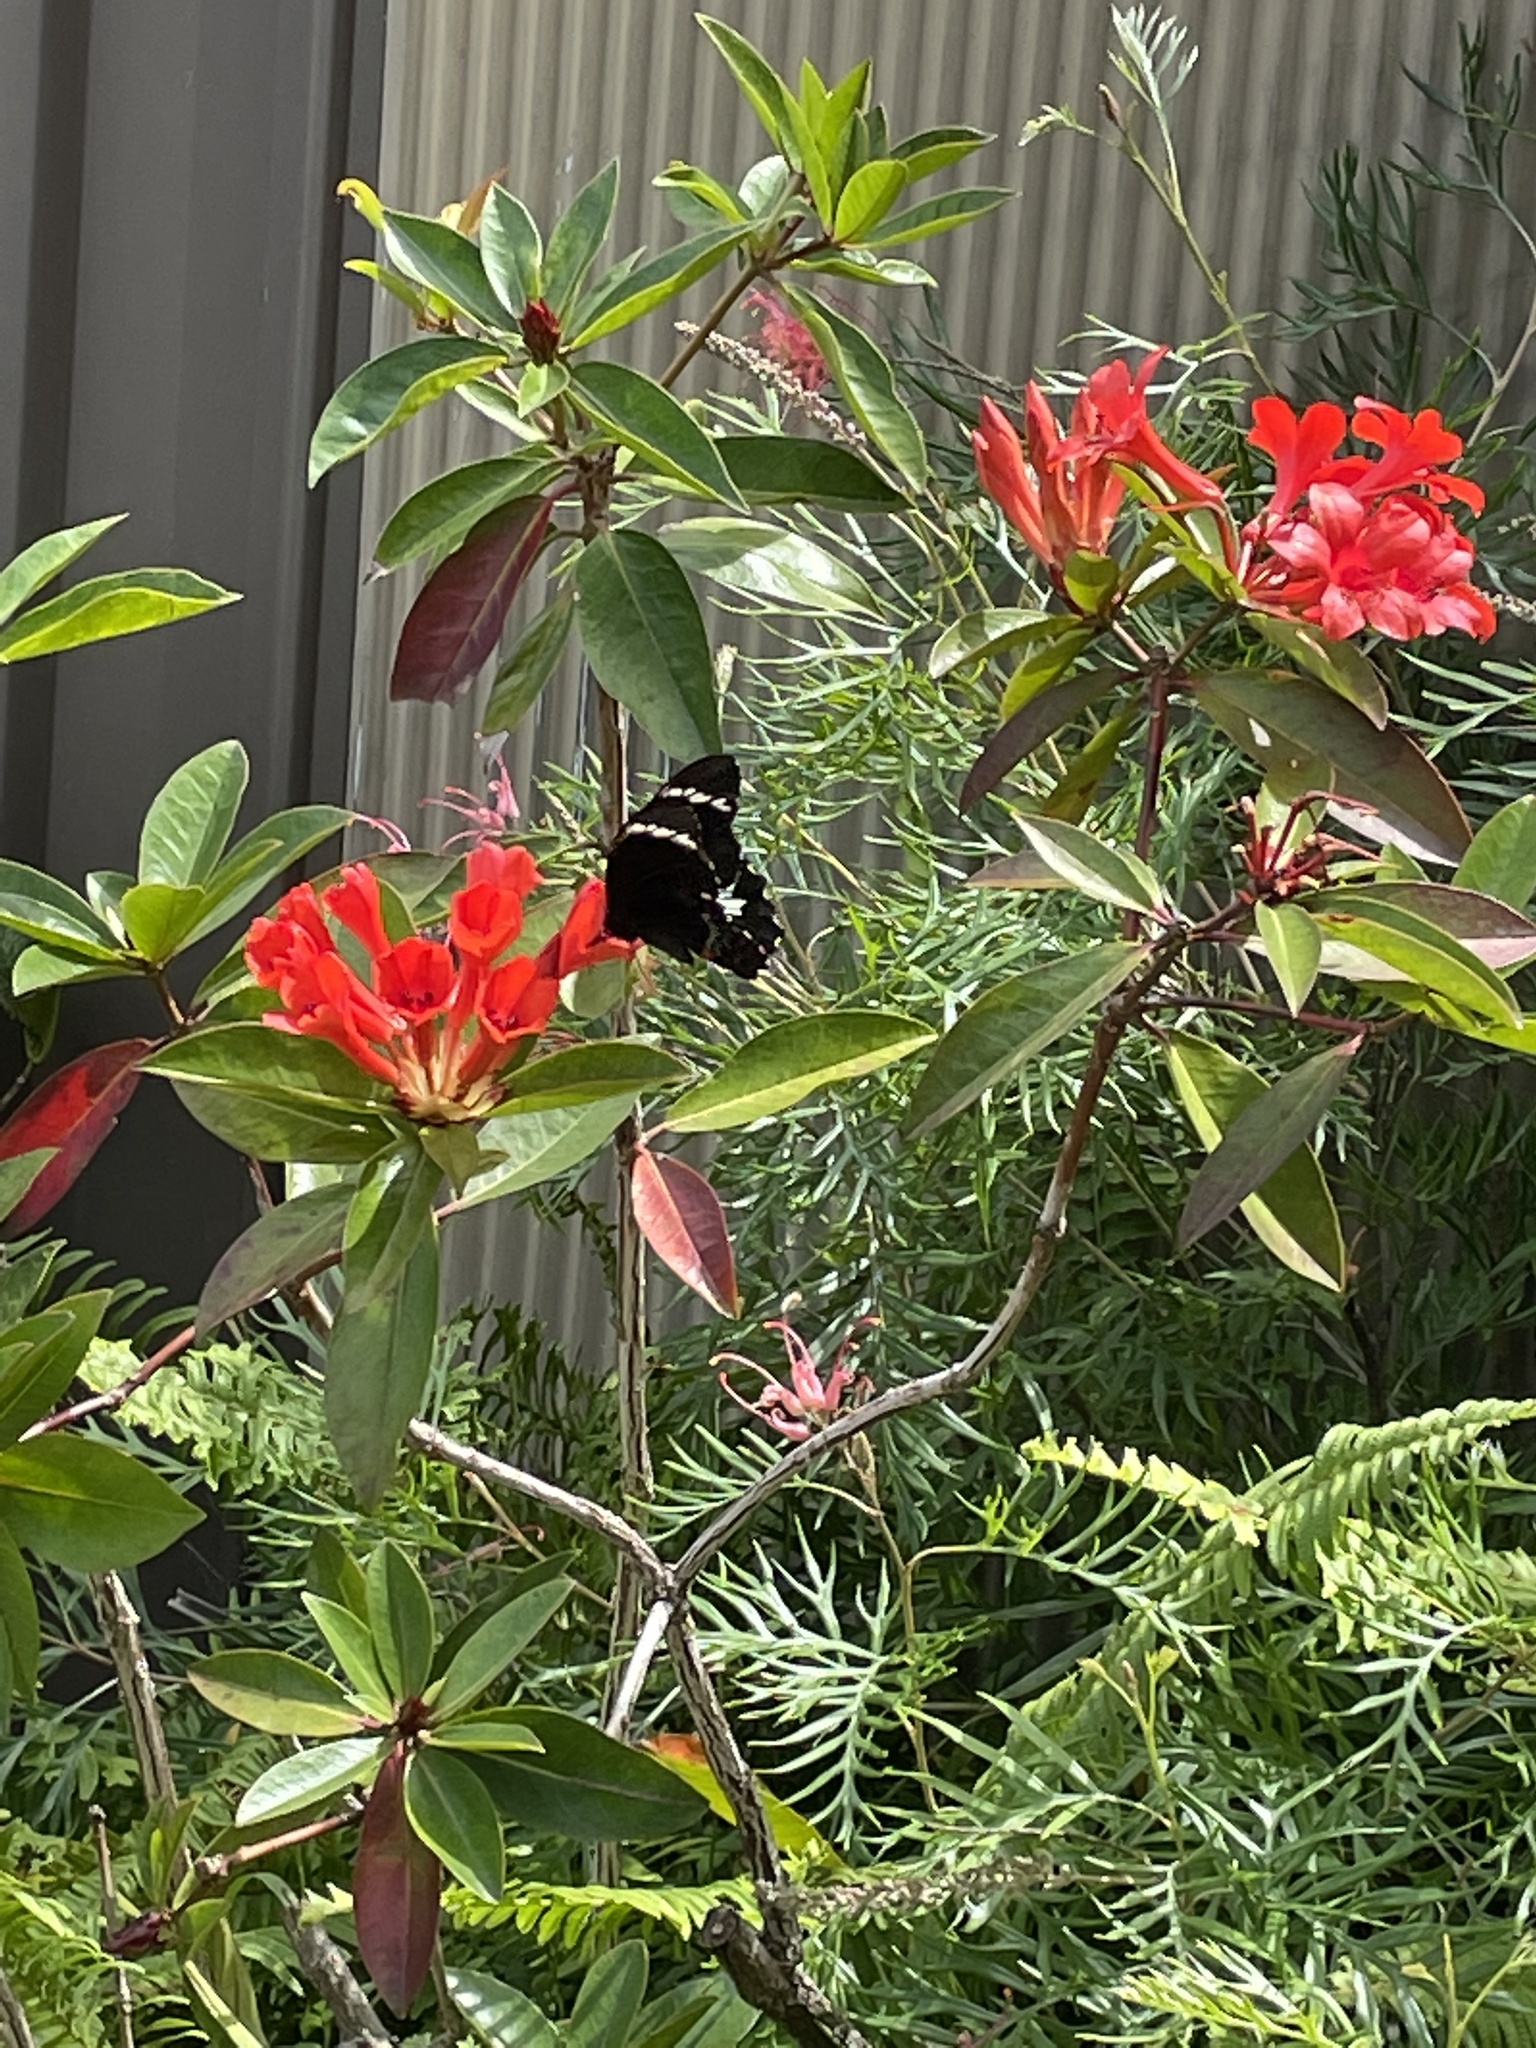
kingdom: Animalia
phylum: Arthropoda
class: Insecta
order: Lepidoptera
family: Papilionidae
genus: Papilio
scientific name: Papilio aegeus
